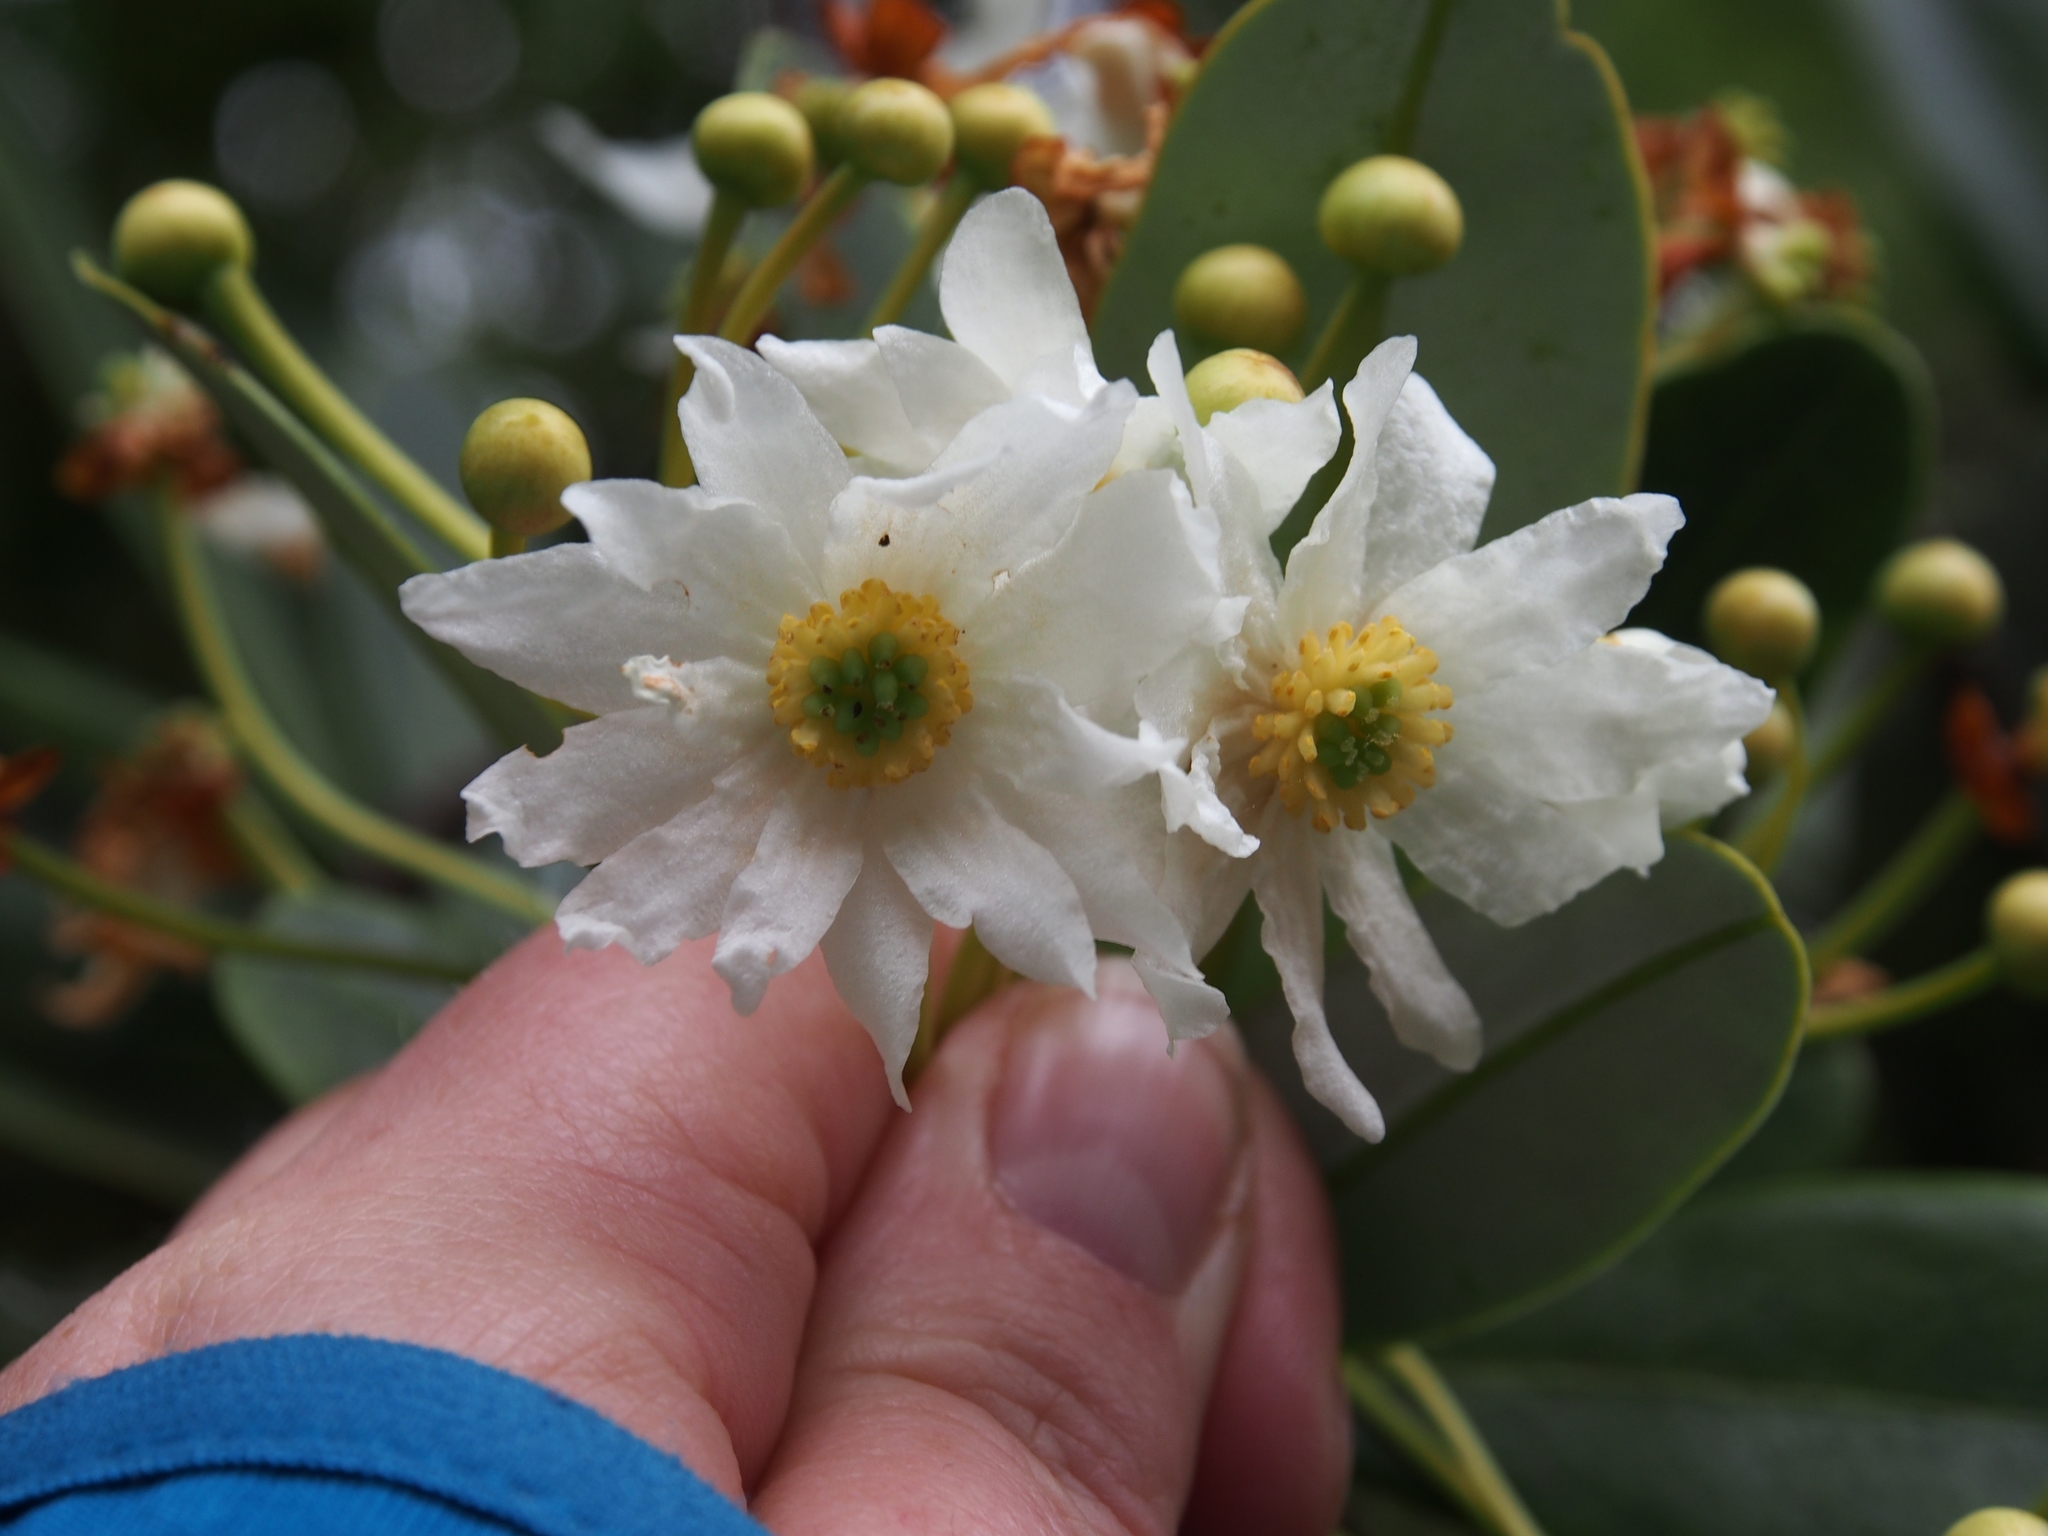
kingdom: Plantae
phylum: Tracheophyta
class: Magnoliopsida
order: Canellales
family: Winteraceae
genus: Drimys
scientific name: Drimys granadensis
